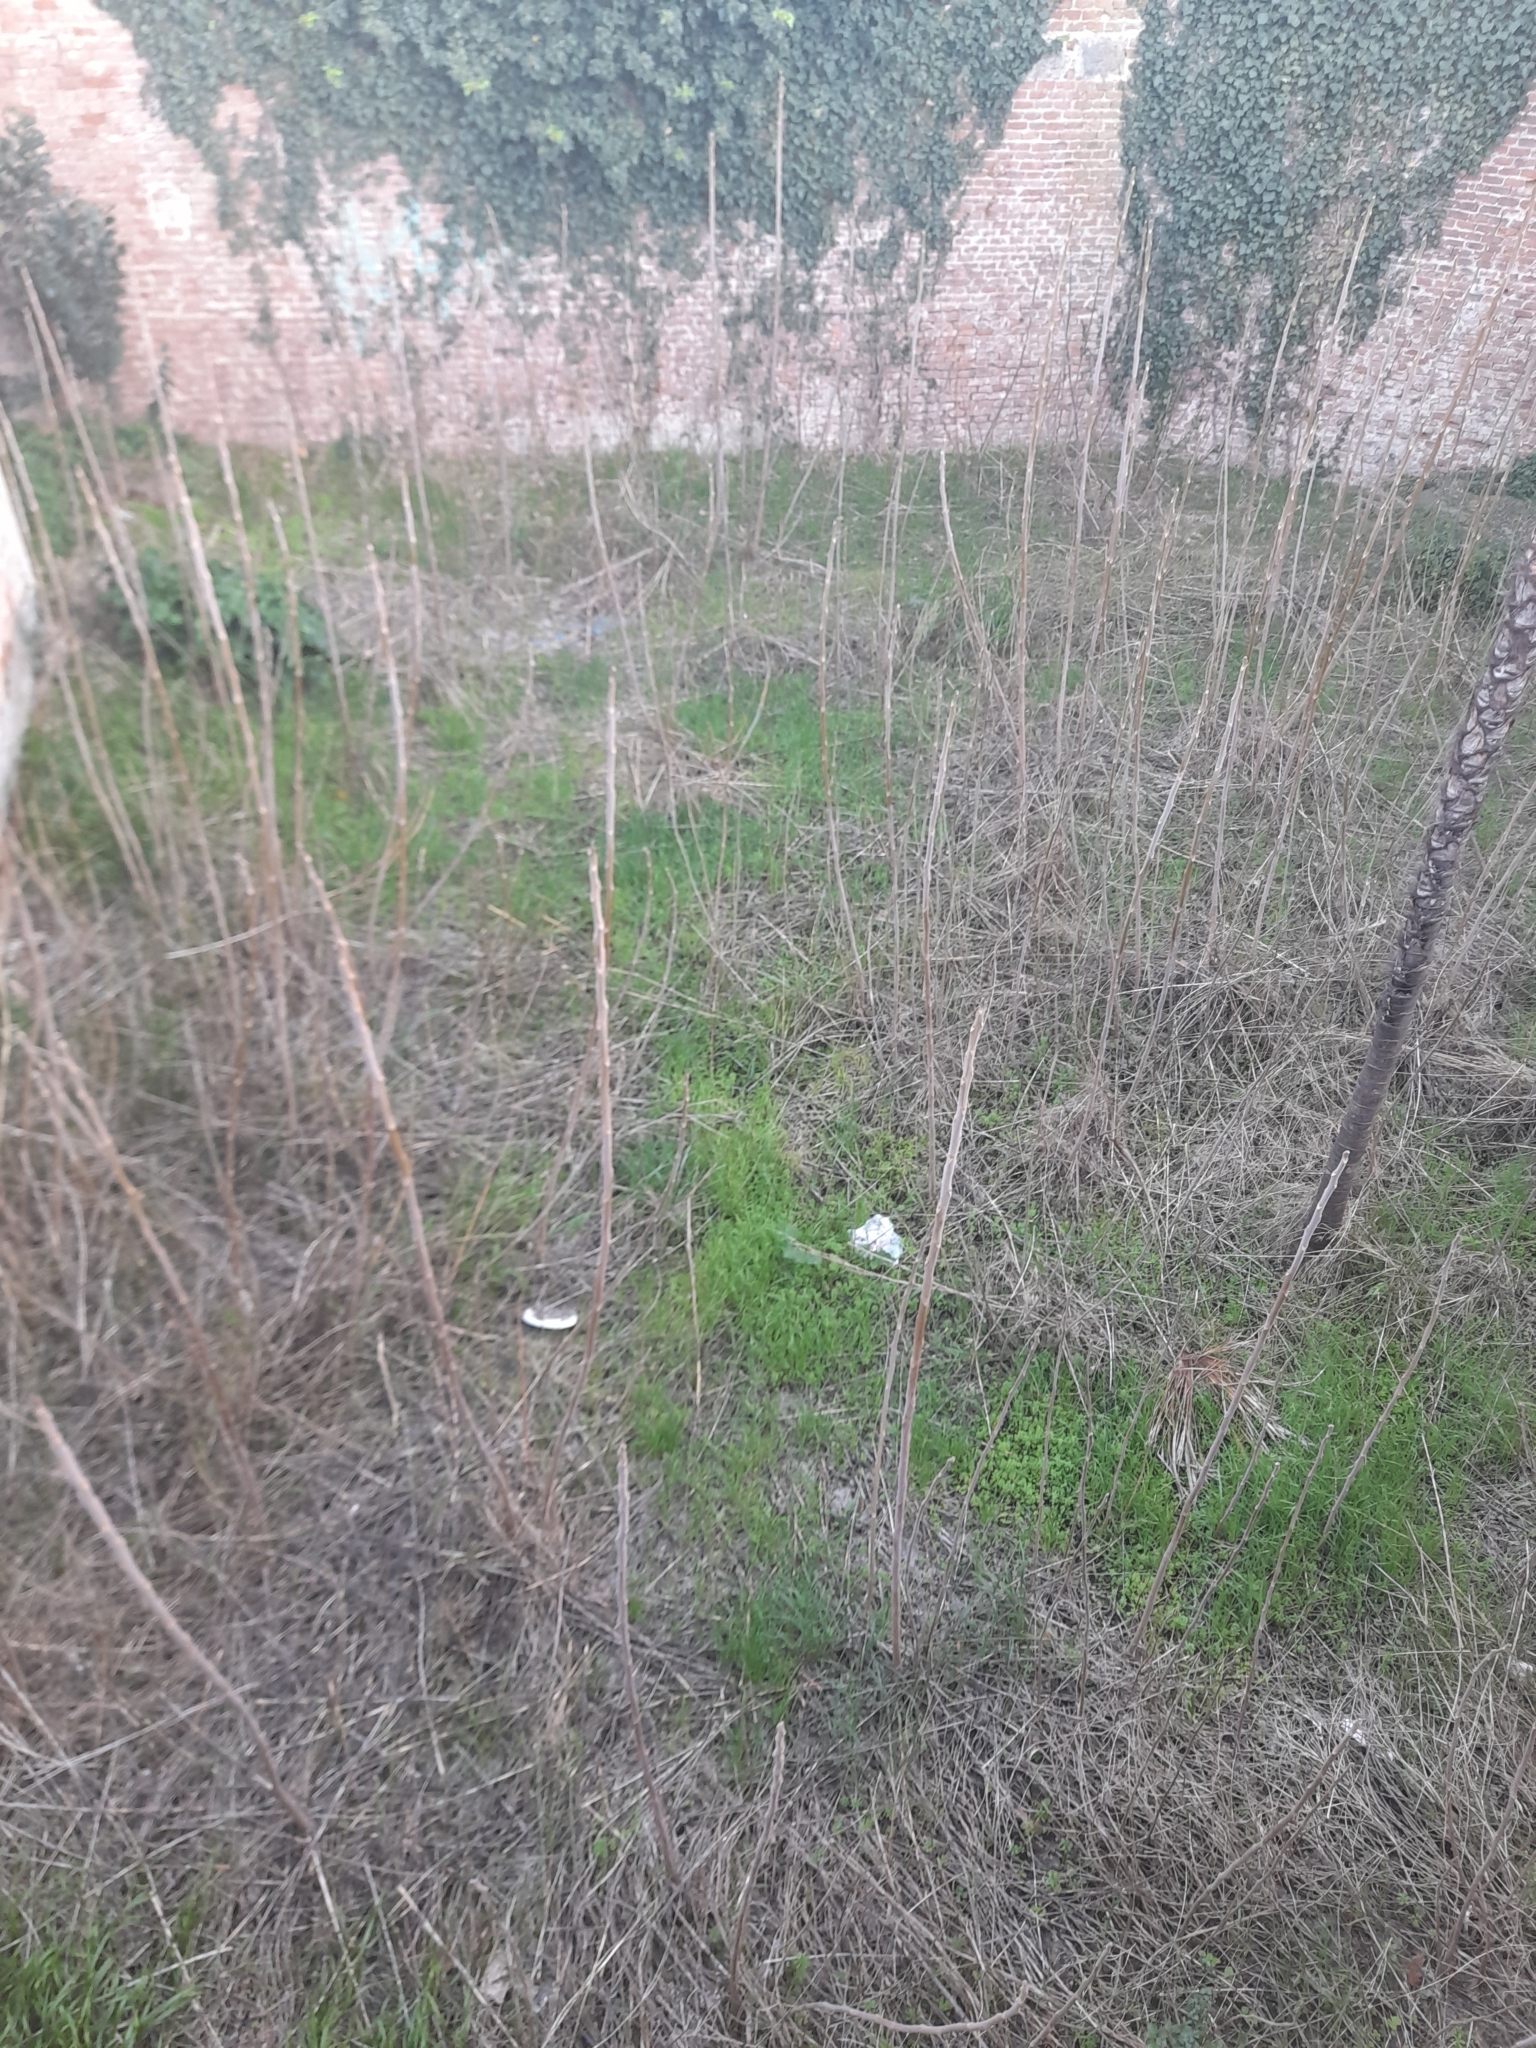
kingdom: Plantae
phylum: Tracheophyta
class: Magnoliopsida
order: Sapindales
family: Simaroubaceae
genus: Ailanthus
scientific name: Ailanthus altissima
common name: Tree-of-heaven
